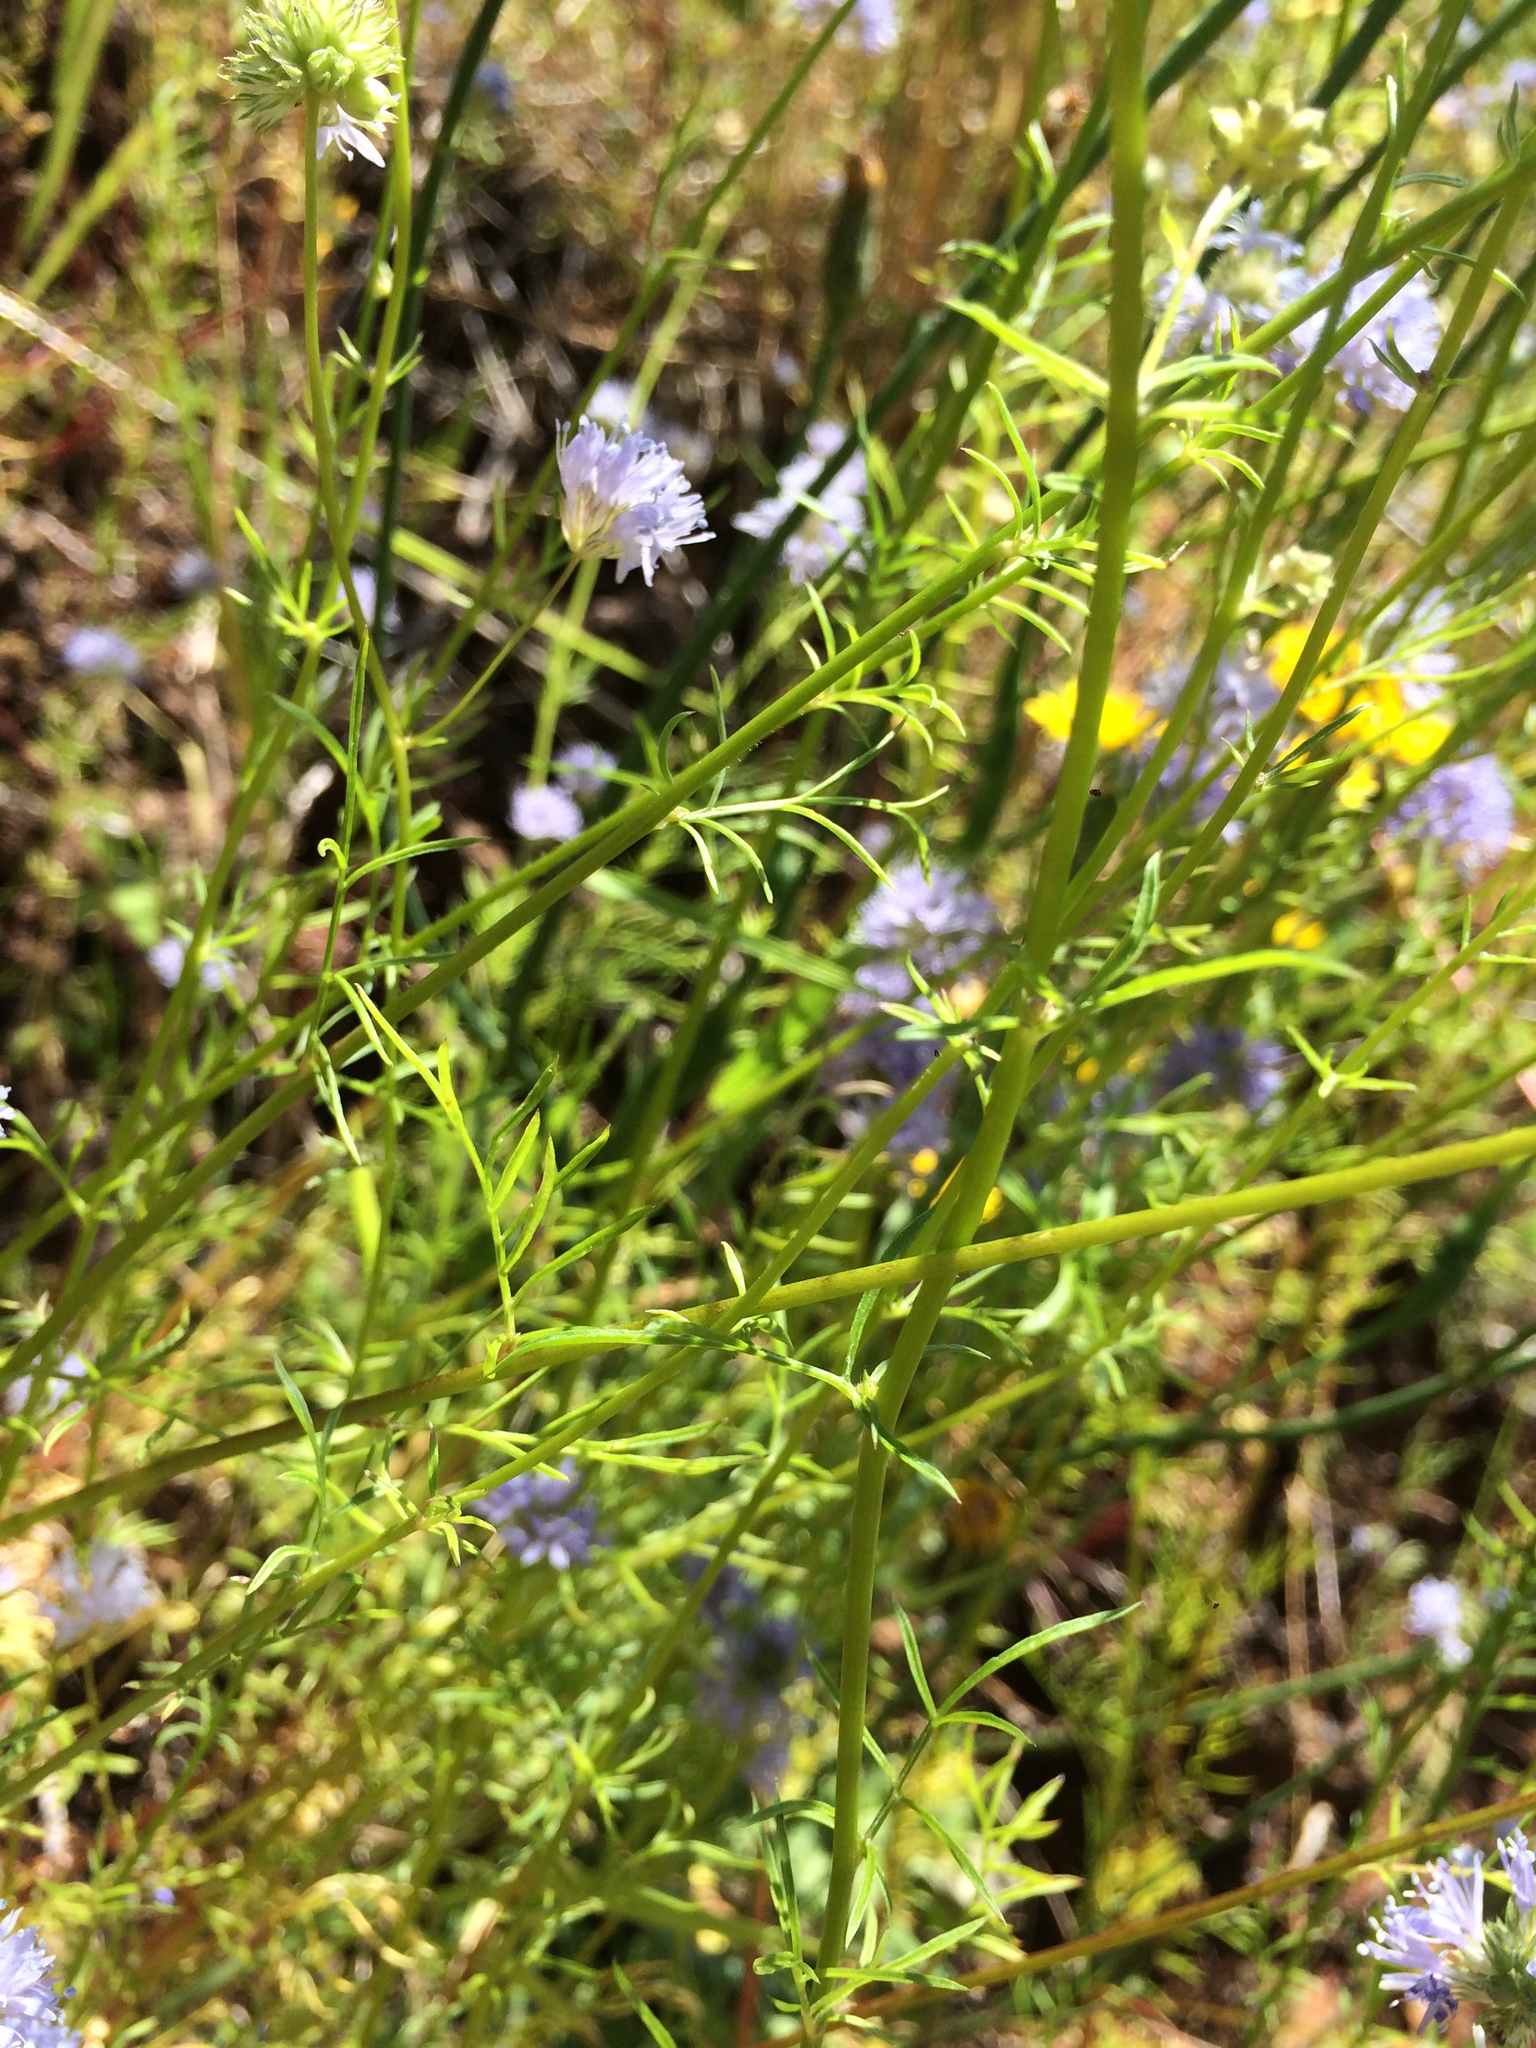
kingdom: Plantae
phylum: Tracheophyta
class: Magnoliopsida
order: Ericales
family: Polemoniaceae
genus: Gilia
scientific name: Gilia capitata
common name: Bluehead gilia
